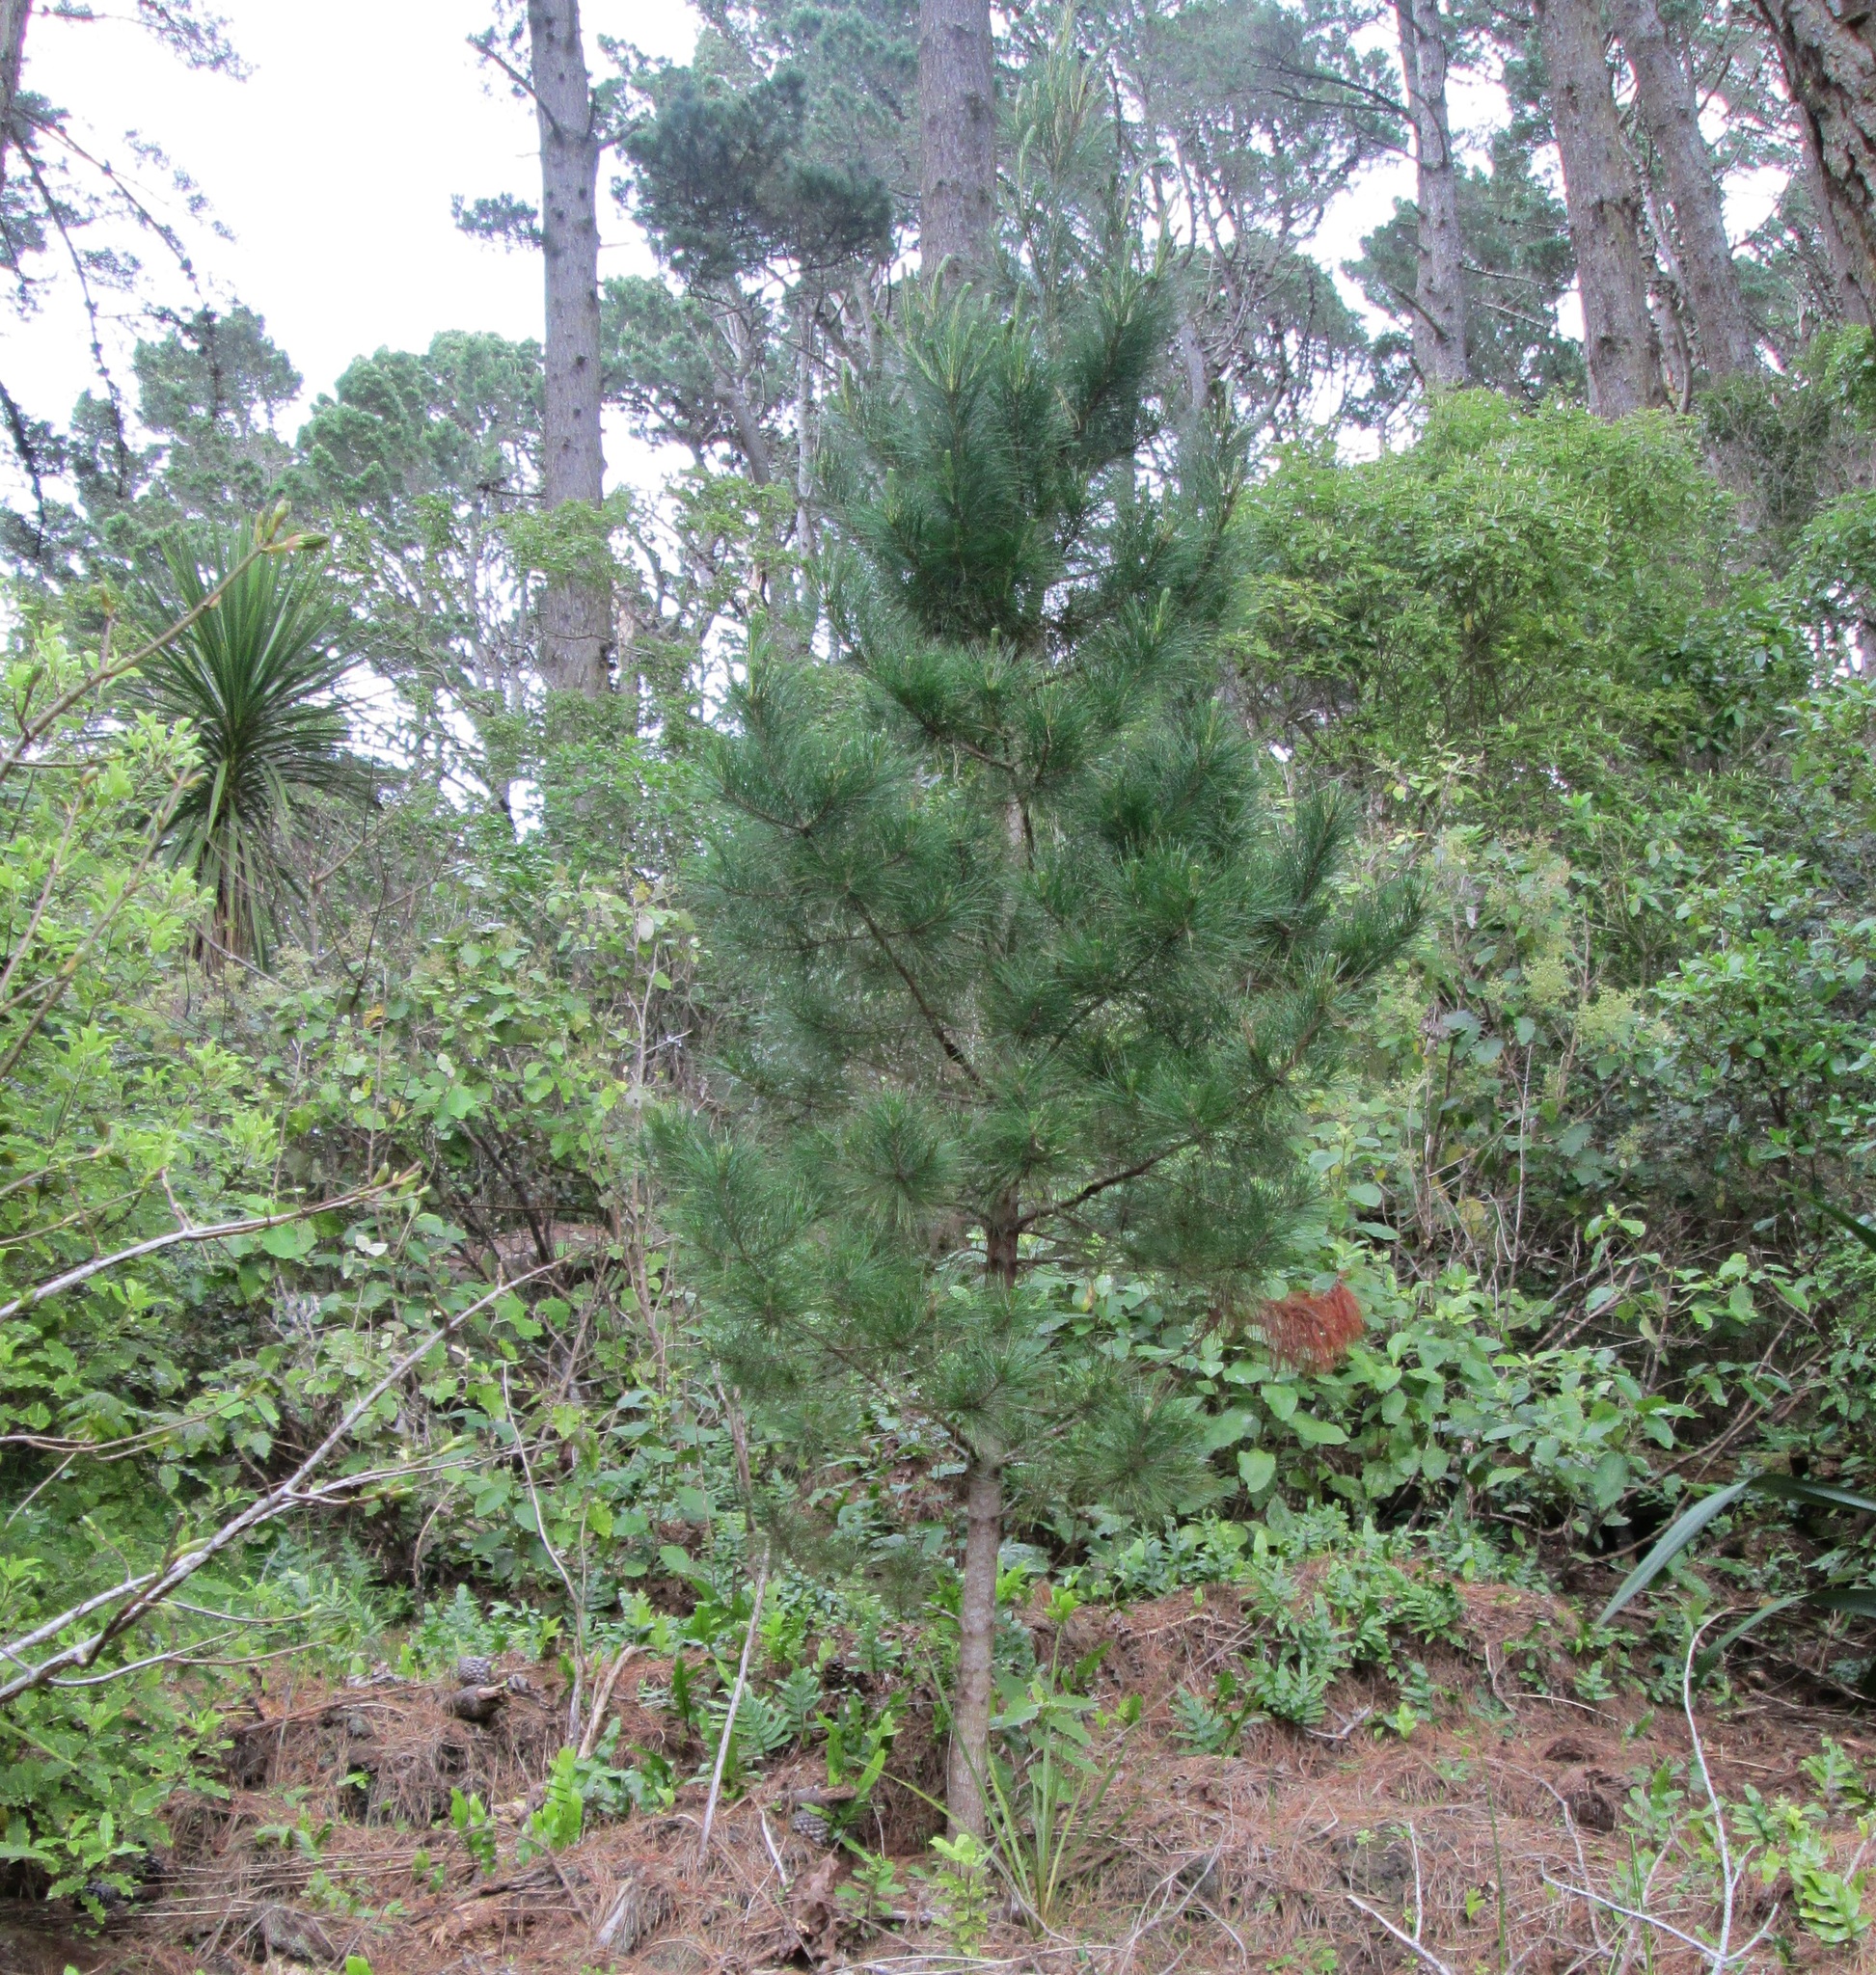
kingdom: Plantae
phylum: Tracheophyta
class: Pinopsida
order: Pinales
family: Pinaceae
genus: Pinus
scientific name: Pinus radiata
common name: Monterey pine
